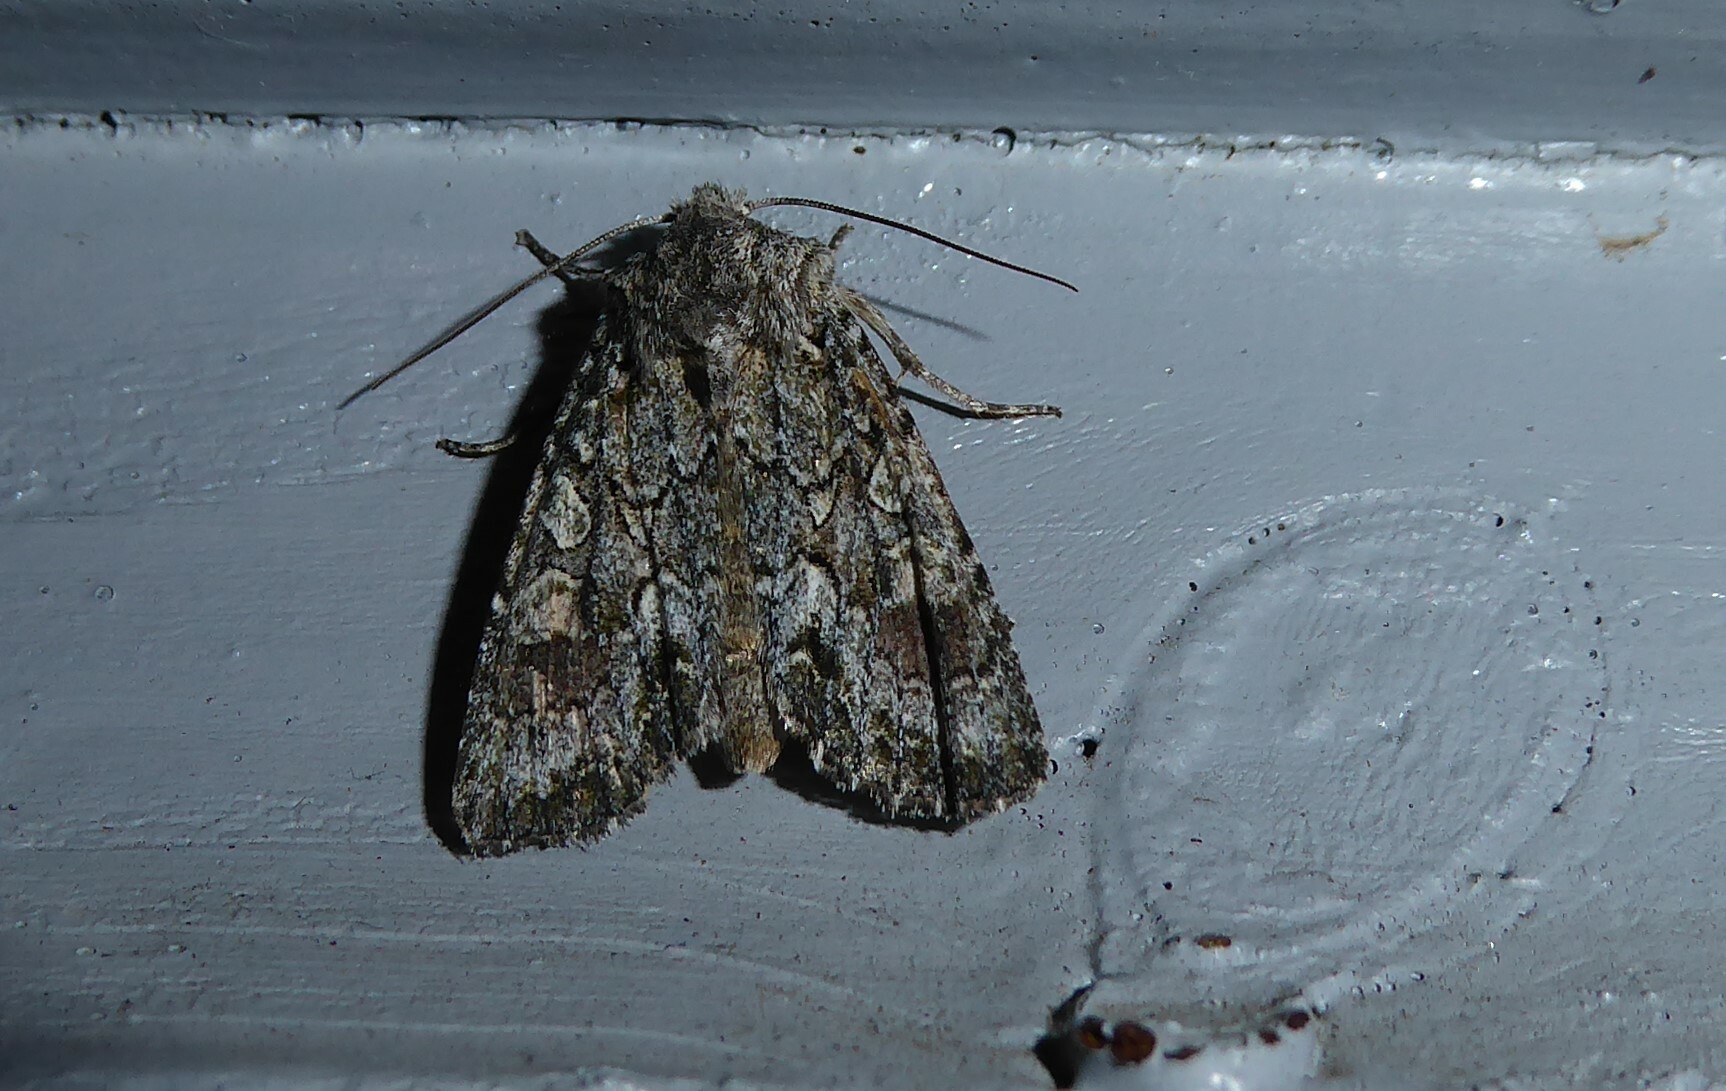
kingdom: Animalia
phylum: Arthropoda
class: Insecta
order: Lepidoptera
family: Noctuidae
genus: Ichneutica
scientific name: Ichneutica mutans
